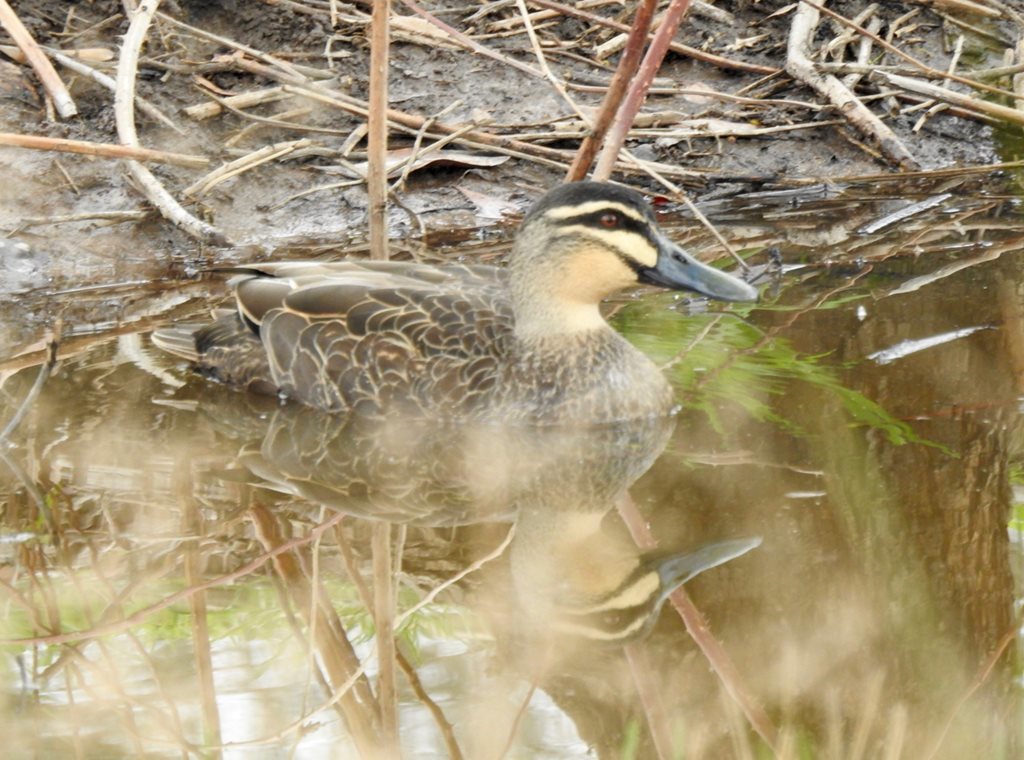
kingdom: Animalia
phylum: Chordata
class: Aves
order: Anseriformes
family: Anatidae
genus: Anas
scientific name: Anas superciliosa
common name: Pacific black duck
